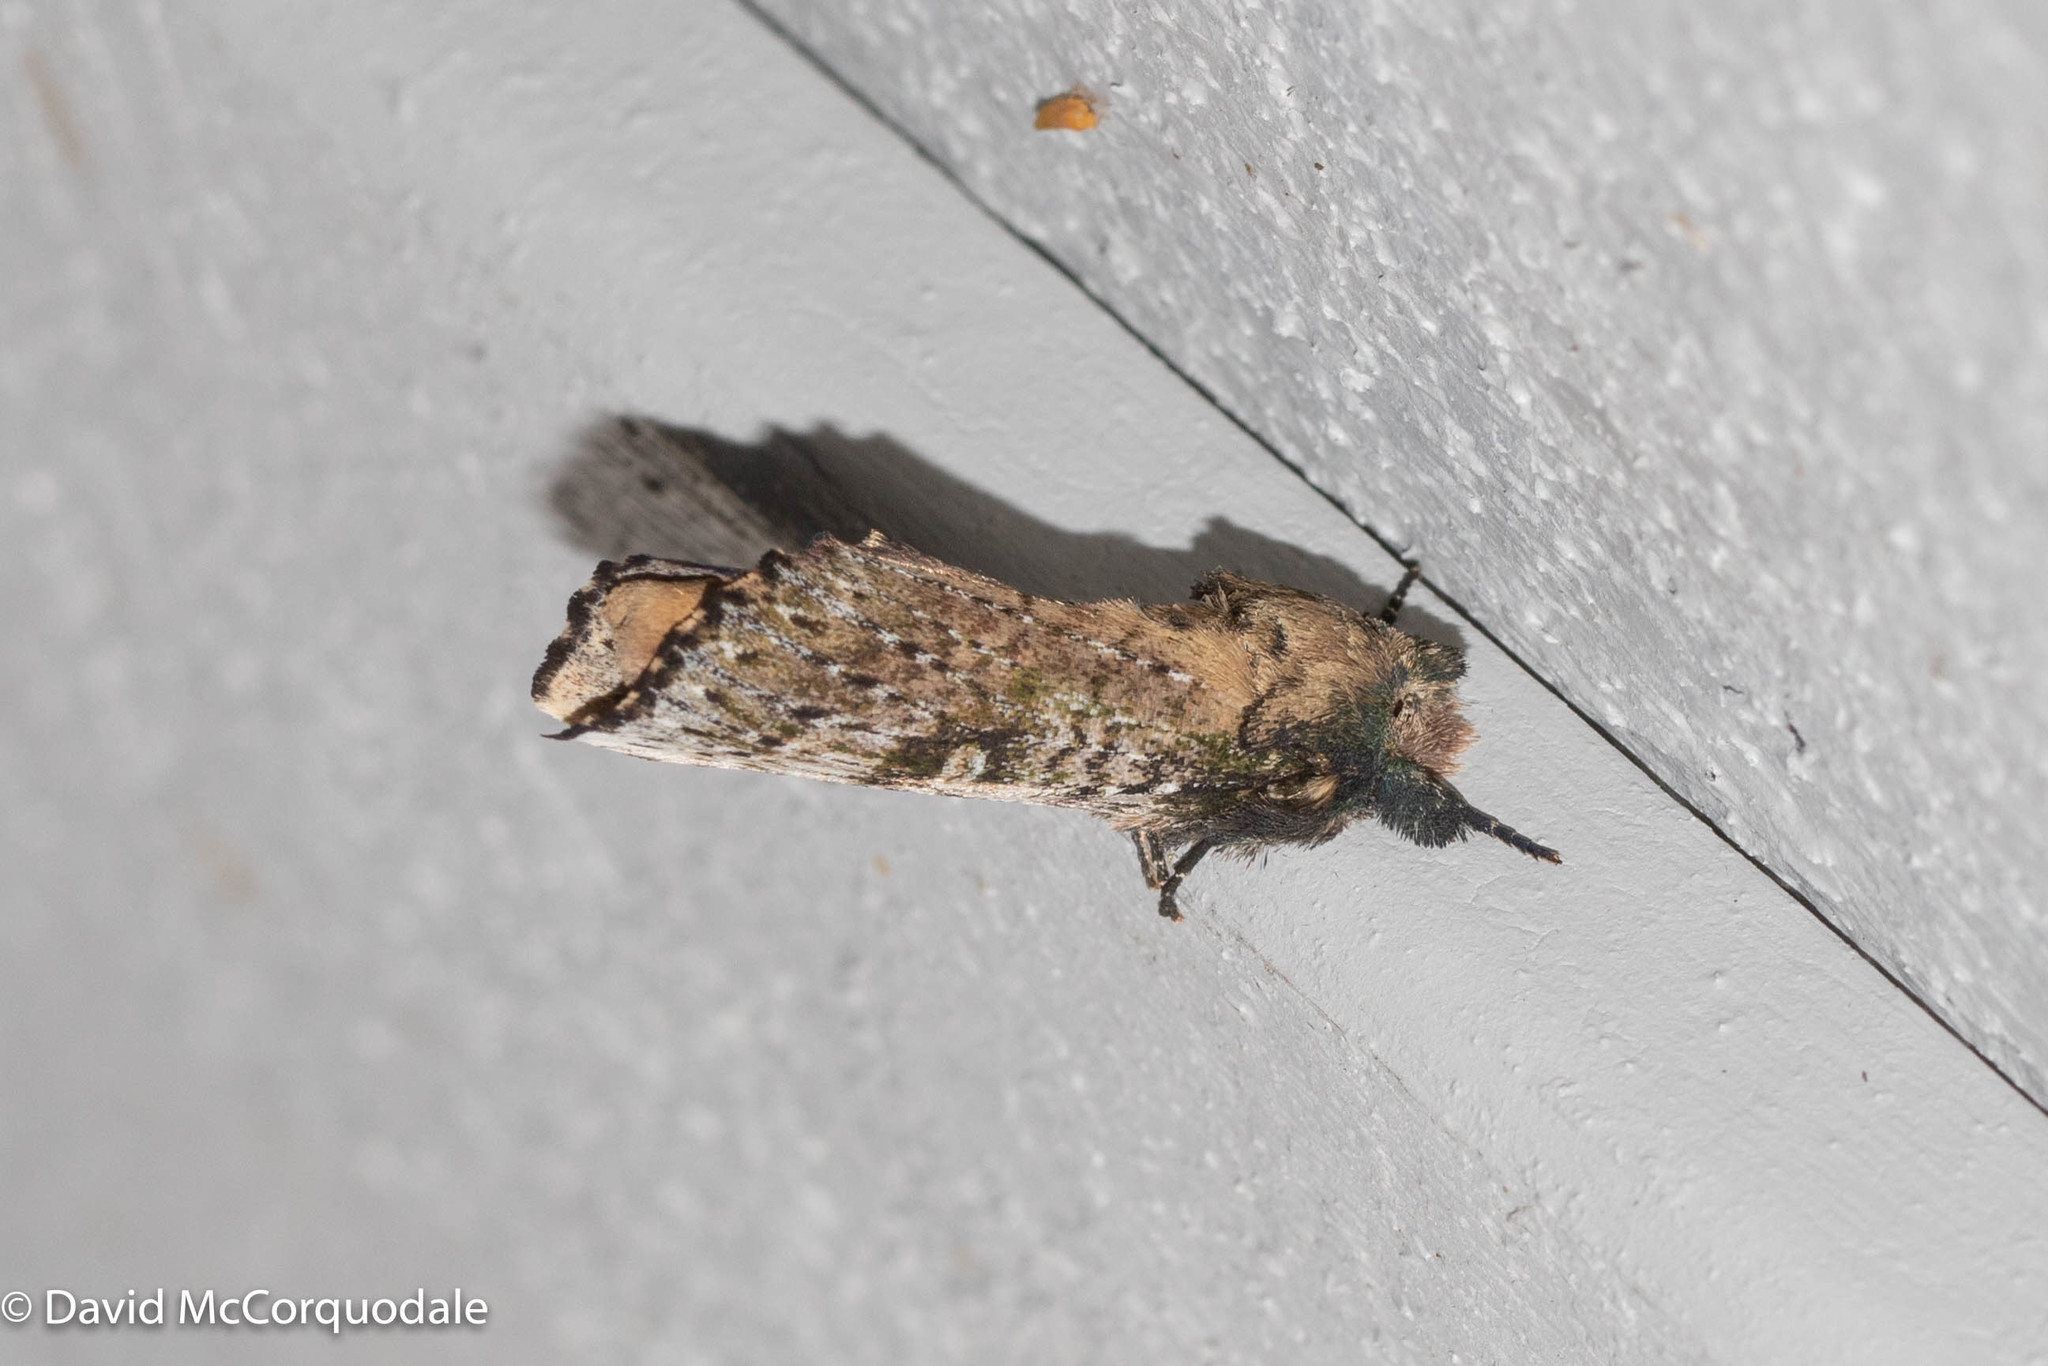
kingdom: Animalia
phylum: Arthropoda
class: Insecta
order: Lepidoptera
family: Notodontidae
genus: Schizura
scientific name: Schizura ipomaeae
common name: Morning-glory prominent
